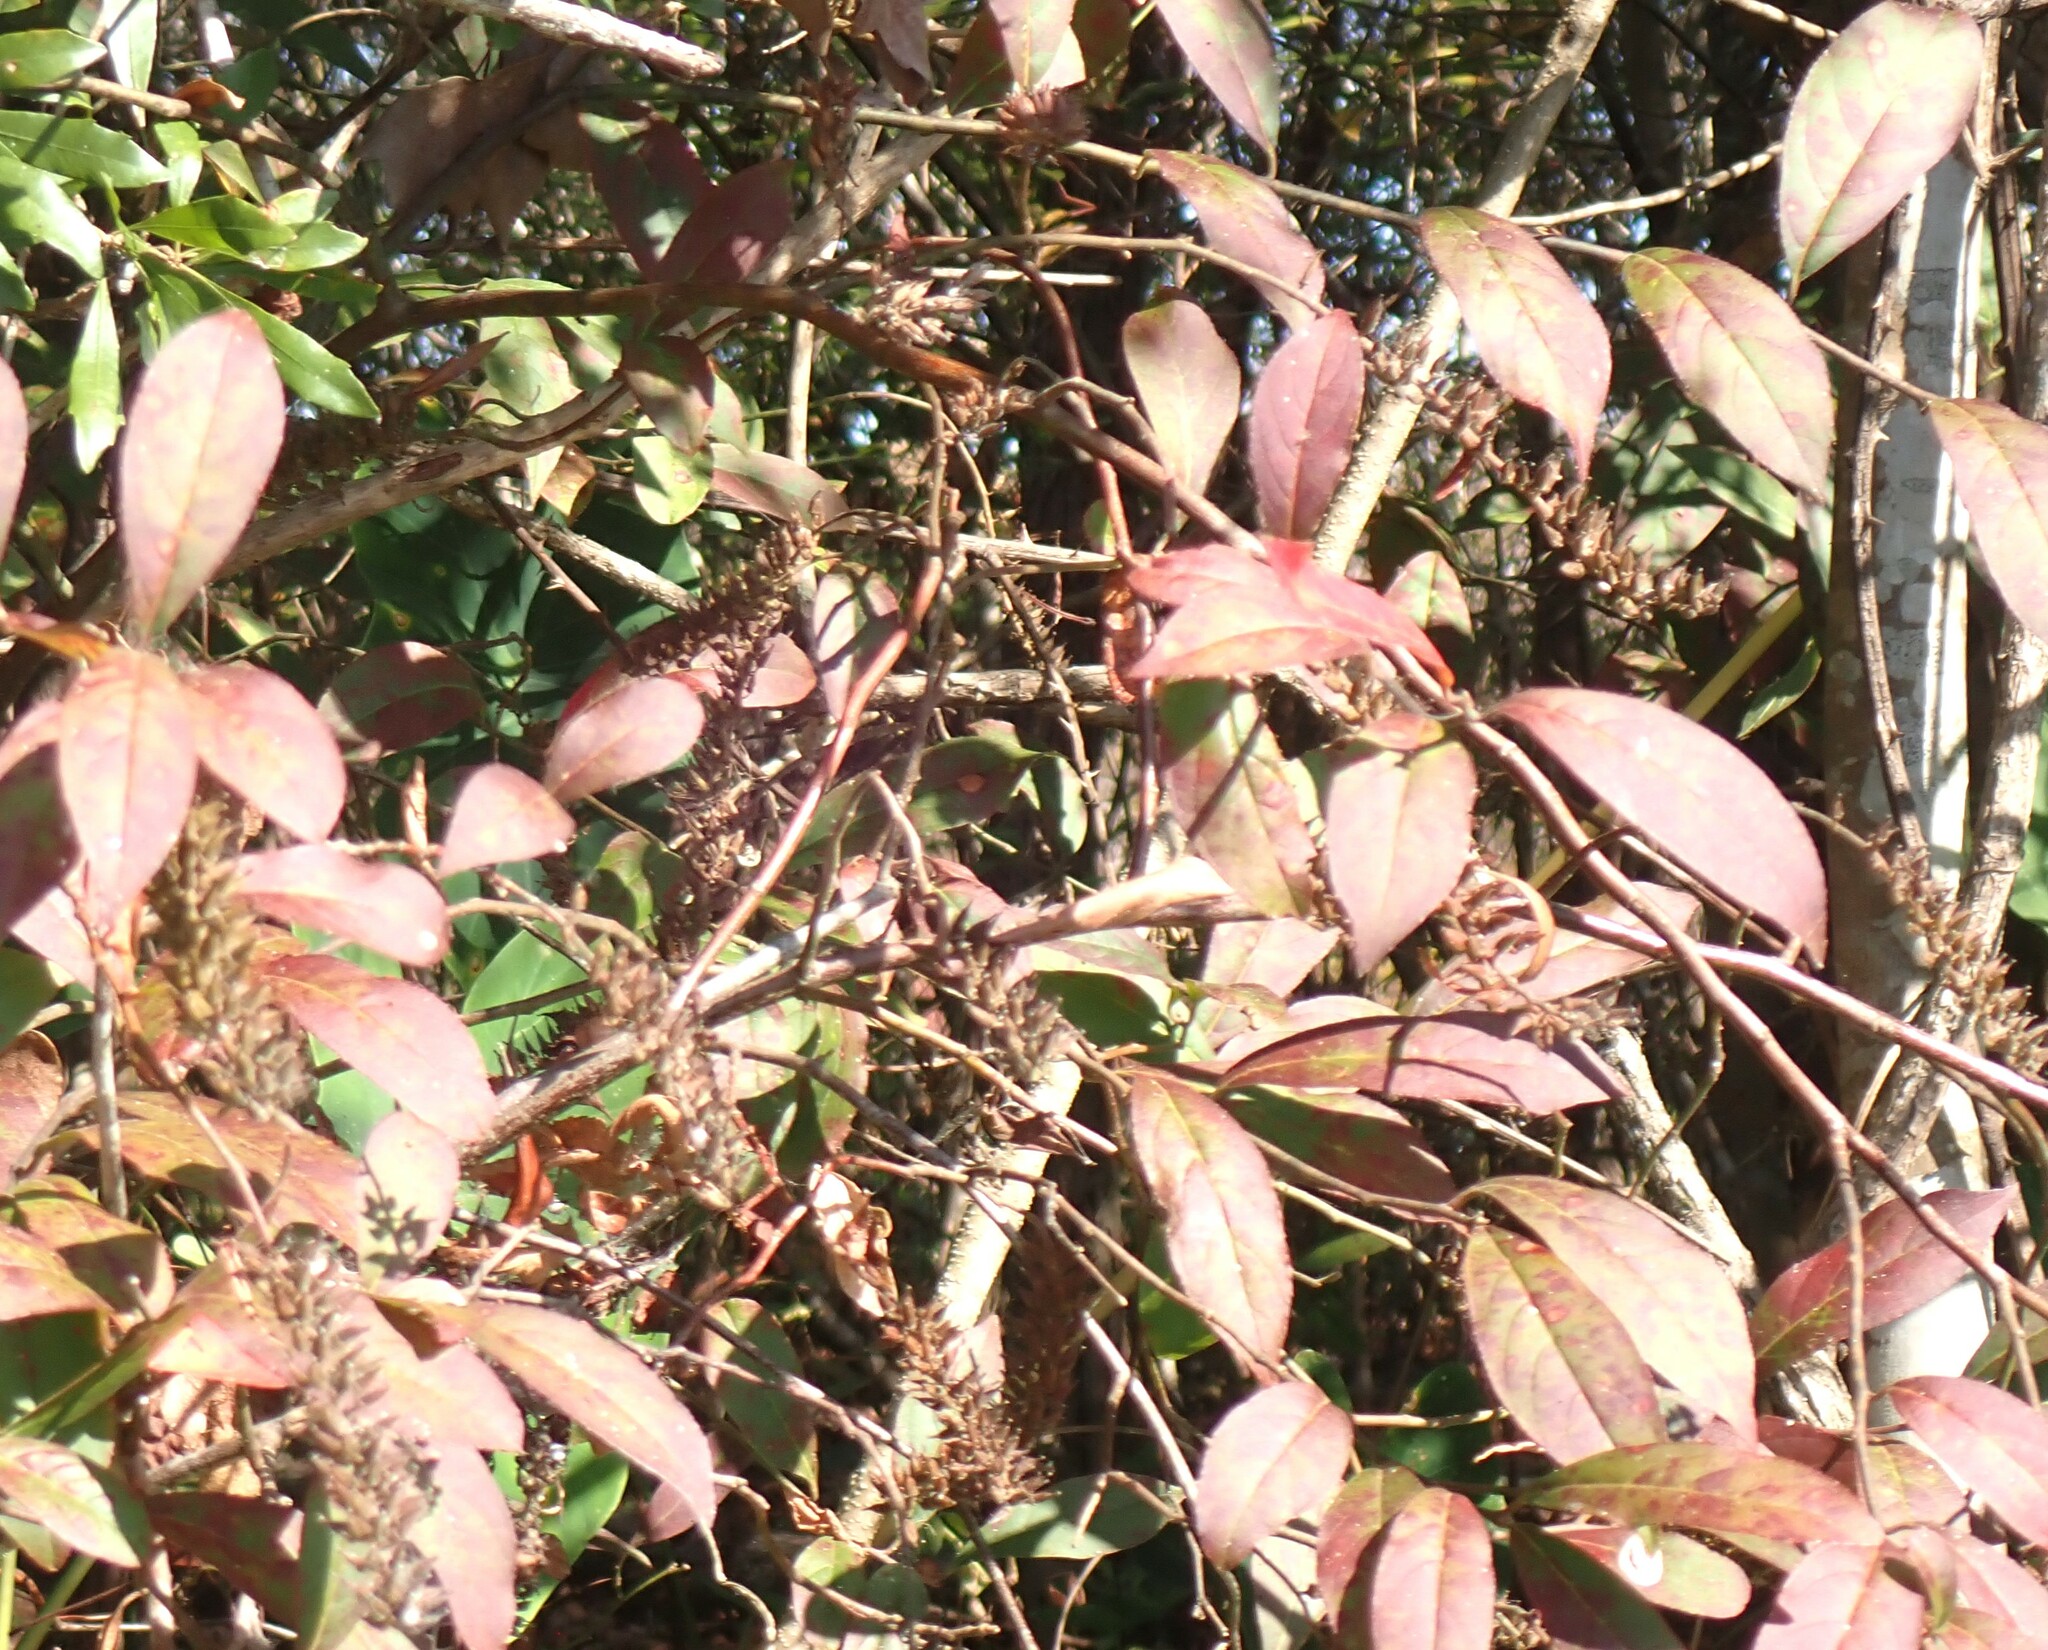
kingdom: Plantae
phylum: Tracheophyta
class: Magnoliopsida
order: Saxifragales
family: Iteaceae
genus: Itea
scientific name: Itea virginica
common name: Sweetspire
